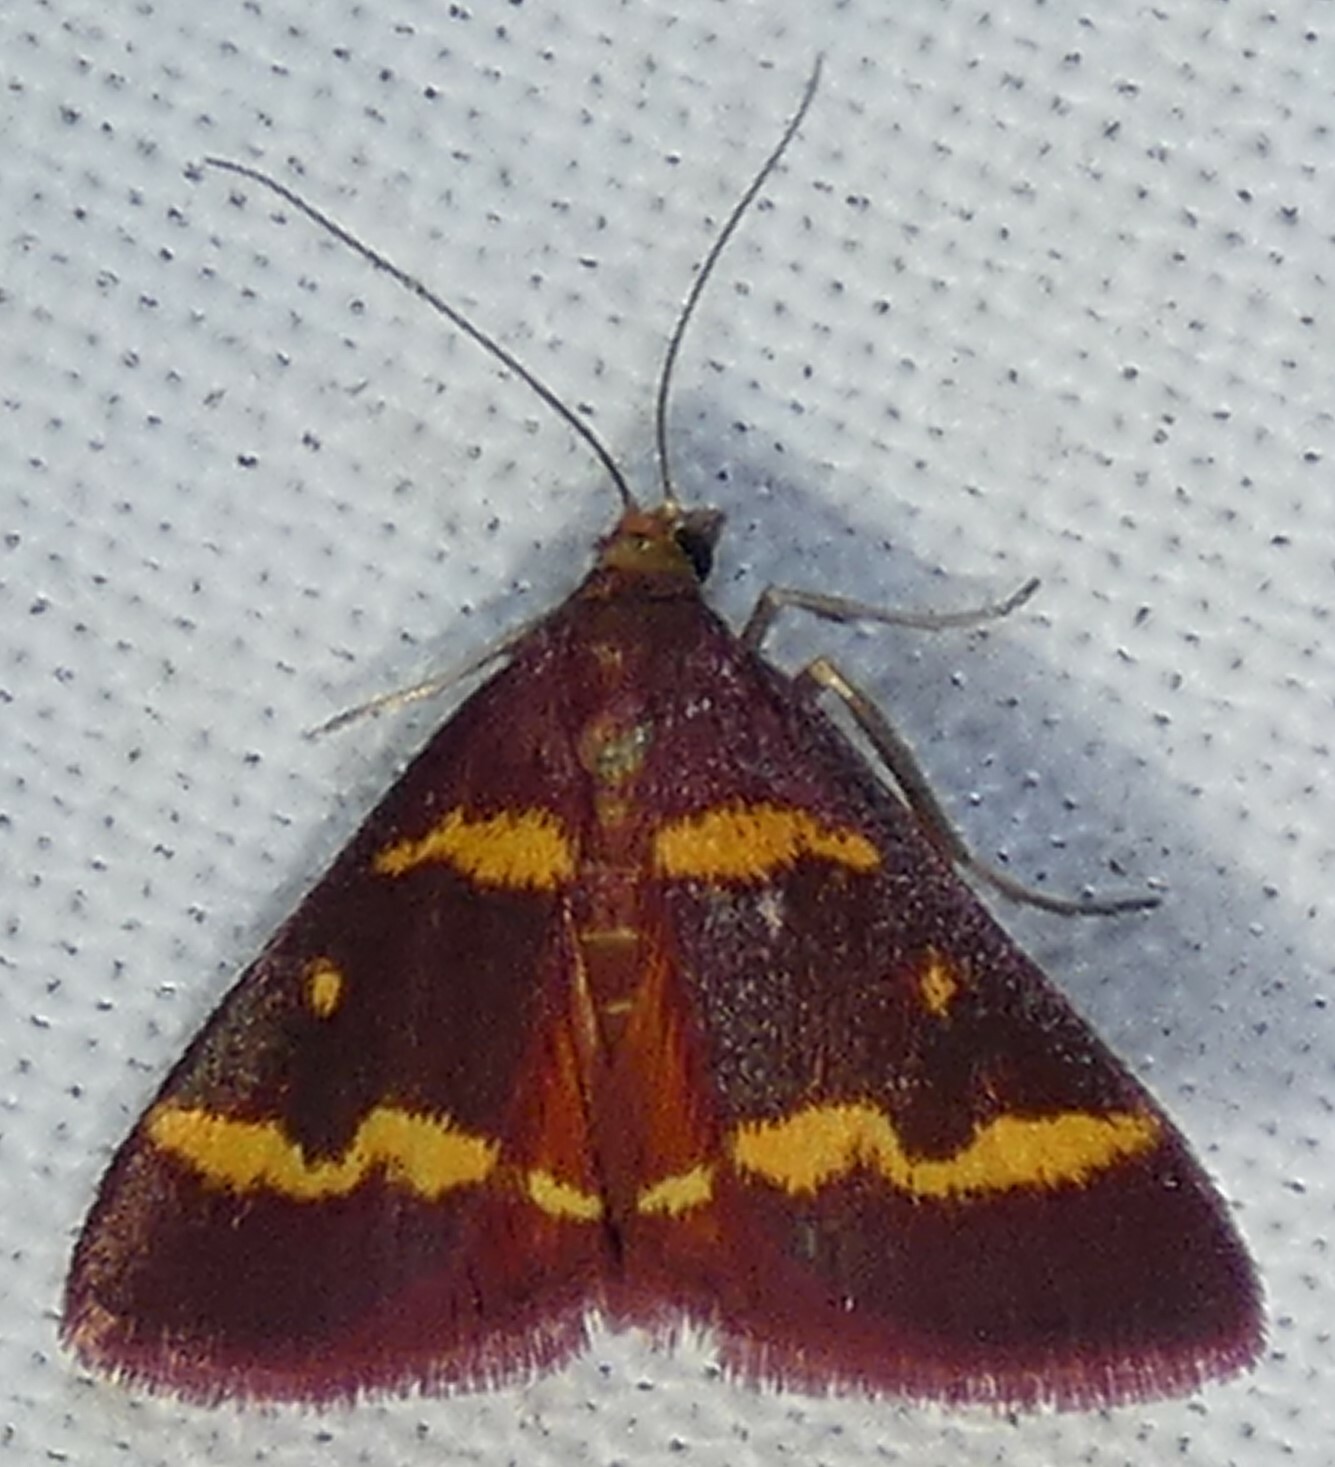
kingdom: Animalia
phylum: Arthropoda
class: Insecta
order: Lepidoptera
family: Crambidae
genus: Pyrausta
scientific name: Pyrausta tyralis
